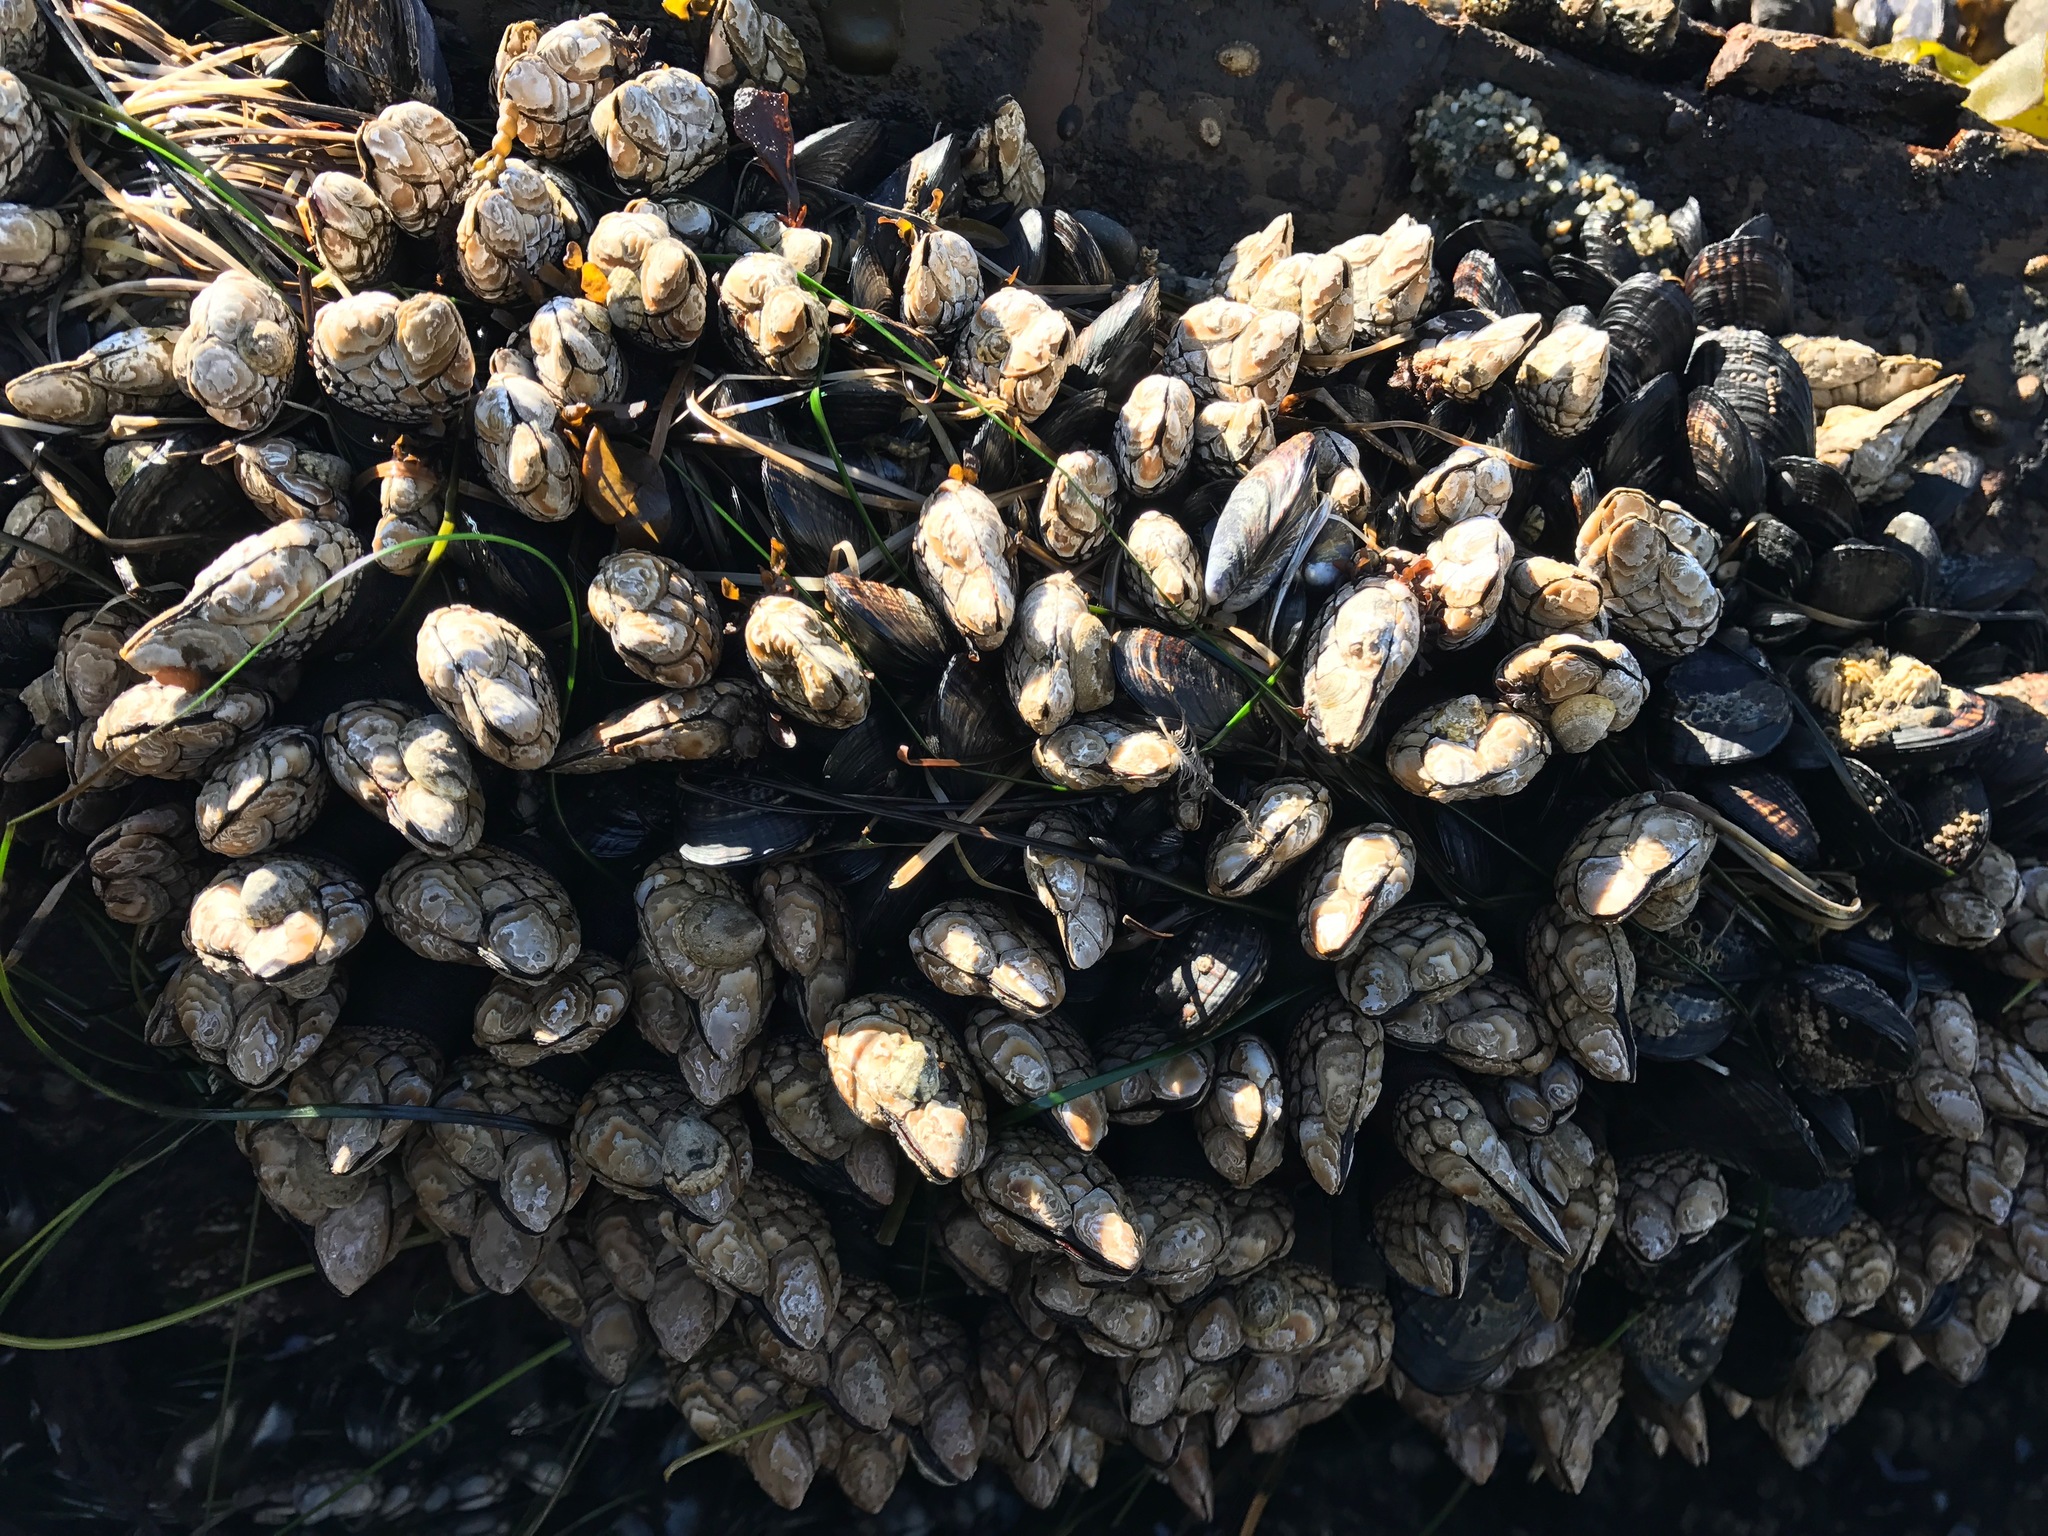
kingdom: Animalia
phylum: Arthropoda
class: Maxillopoda
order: Pedunculata
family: Pollicipedidae
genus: Pollicipes
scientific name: Pollicipes polymerus
